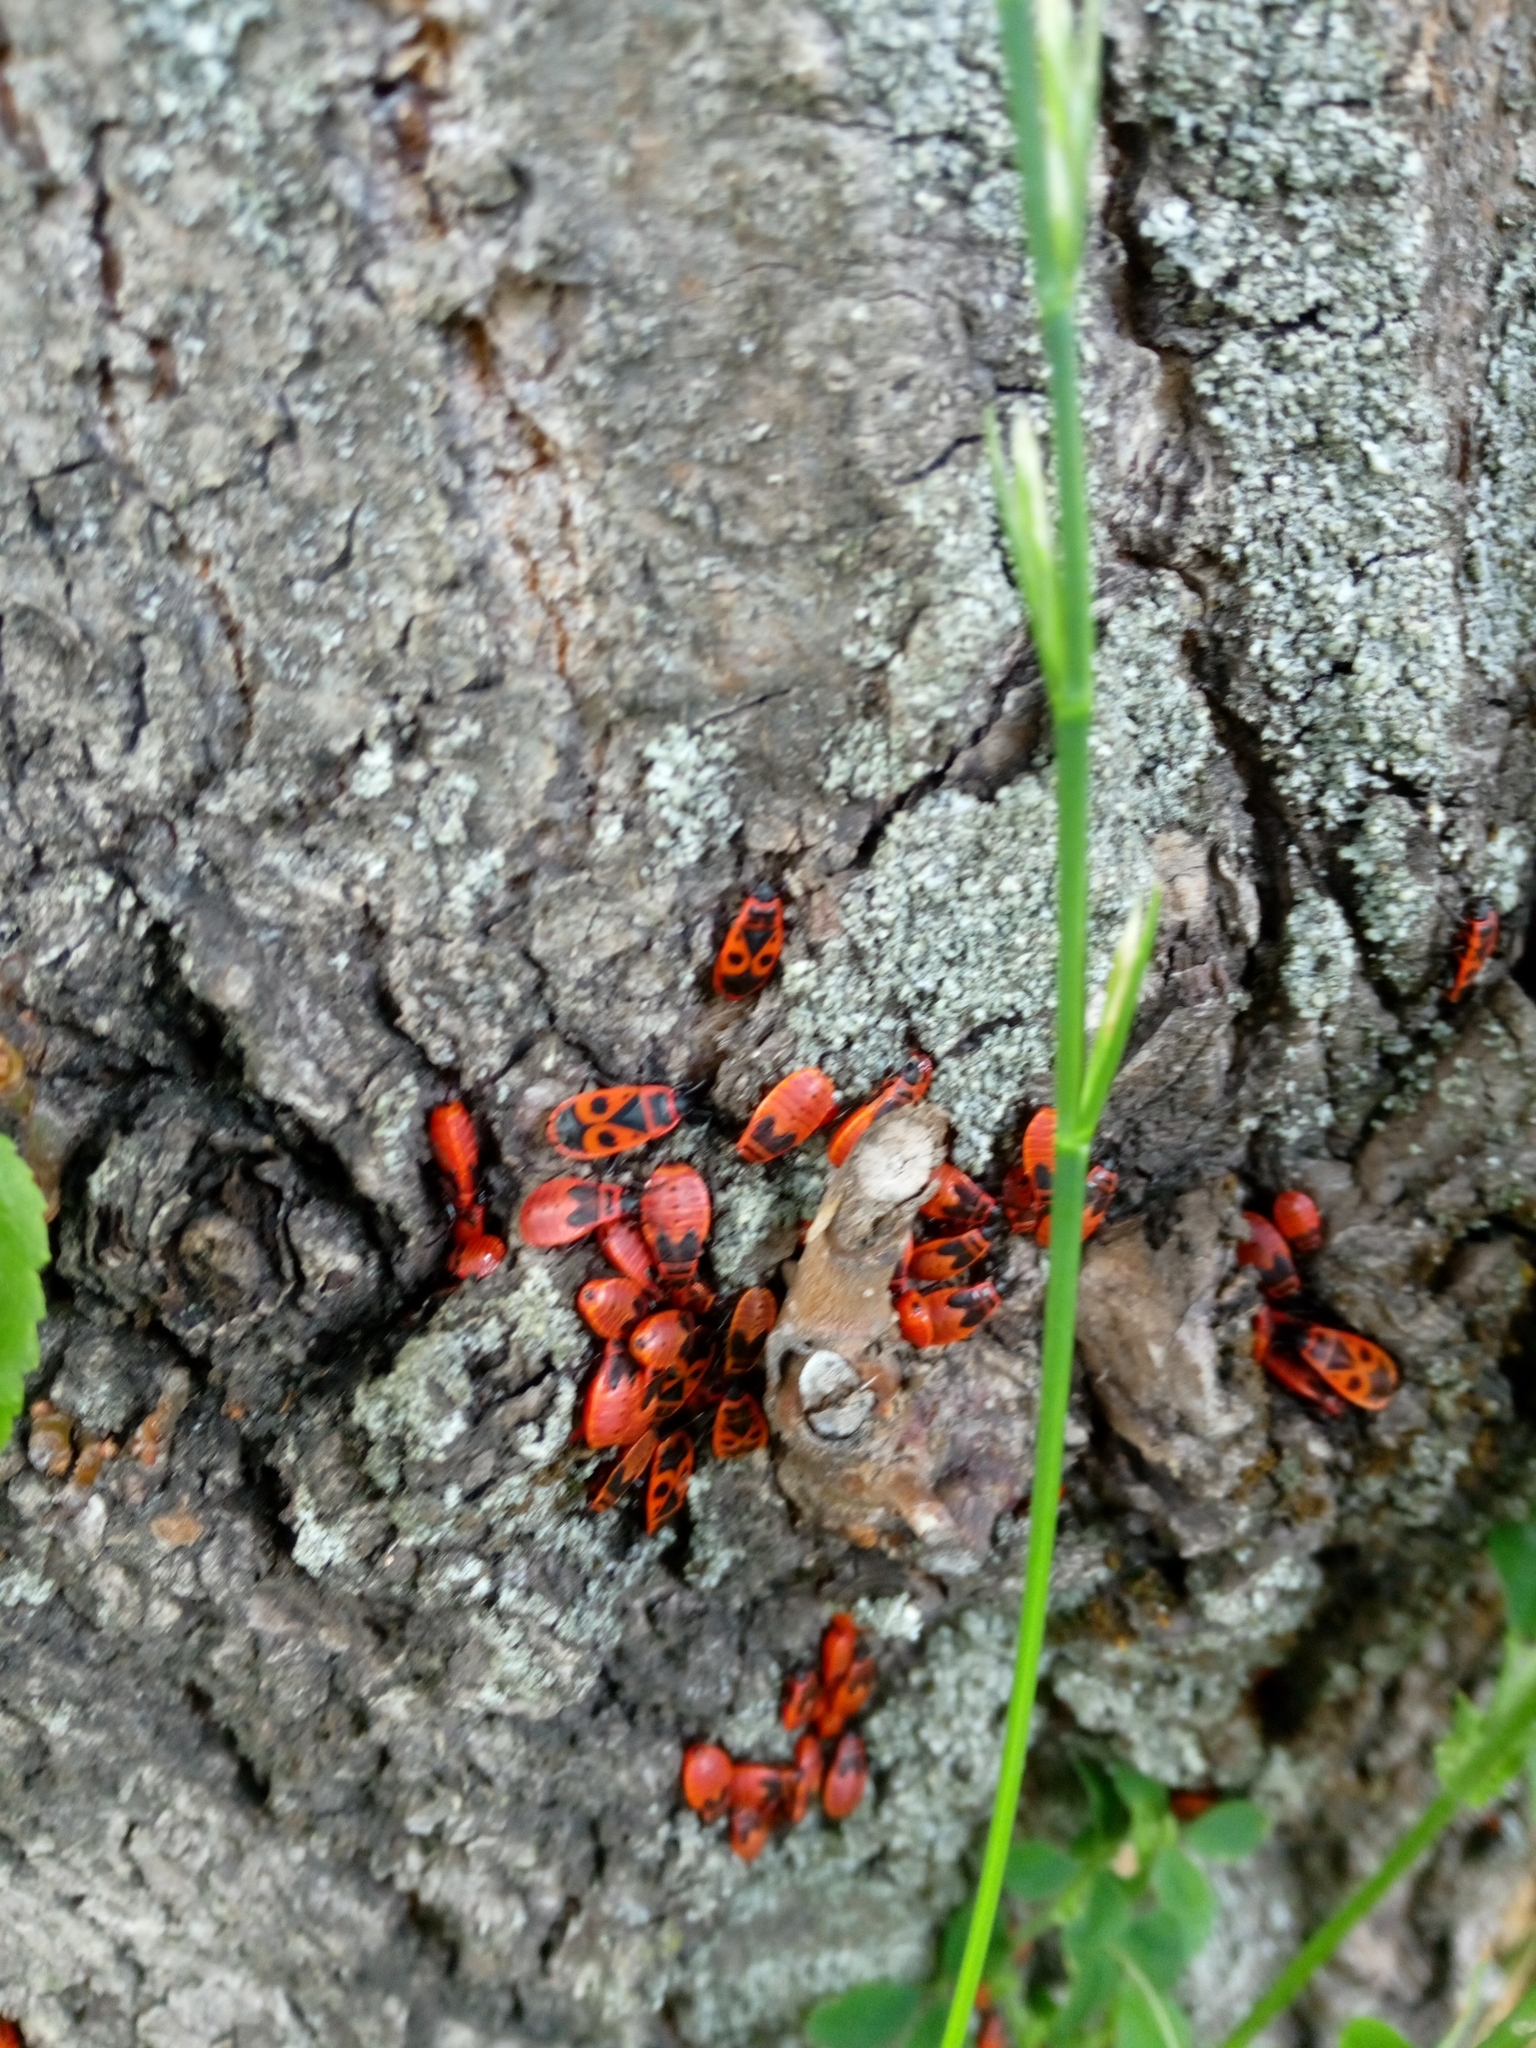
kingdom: Animalia
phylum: Arthropoda
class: Insecta
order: Hemiptera
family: Pyrrhocoridae
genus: Pyrrhocoris
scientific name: Pyrrhocoris apterus
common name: Firebug
